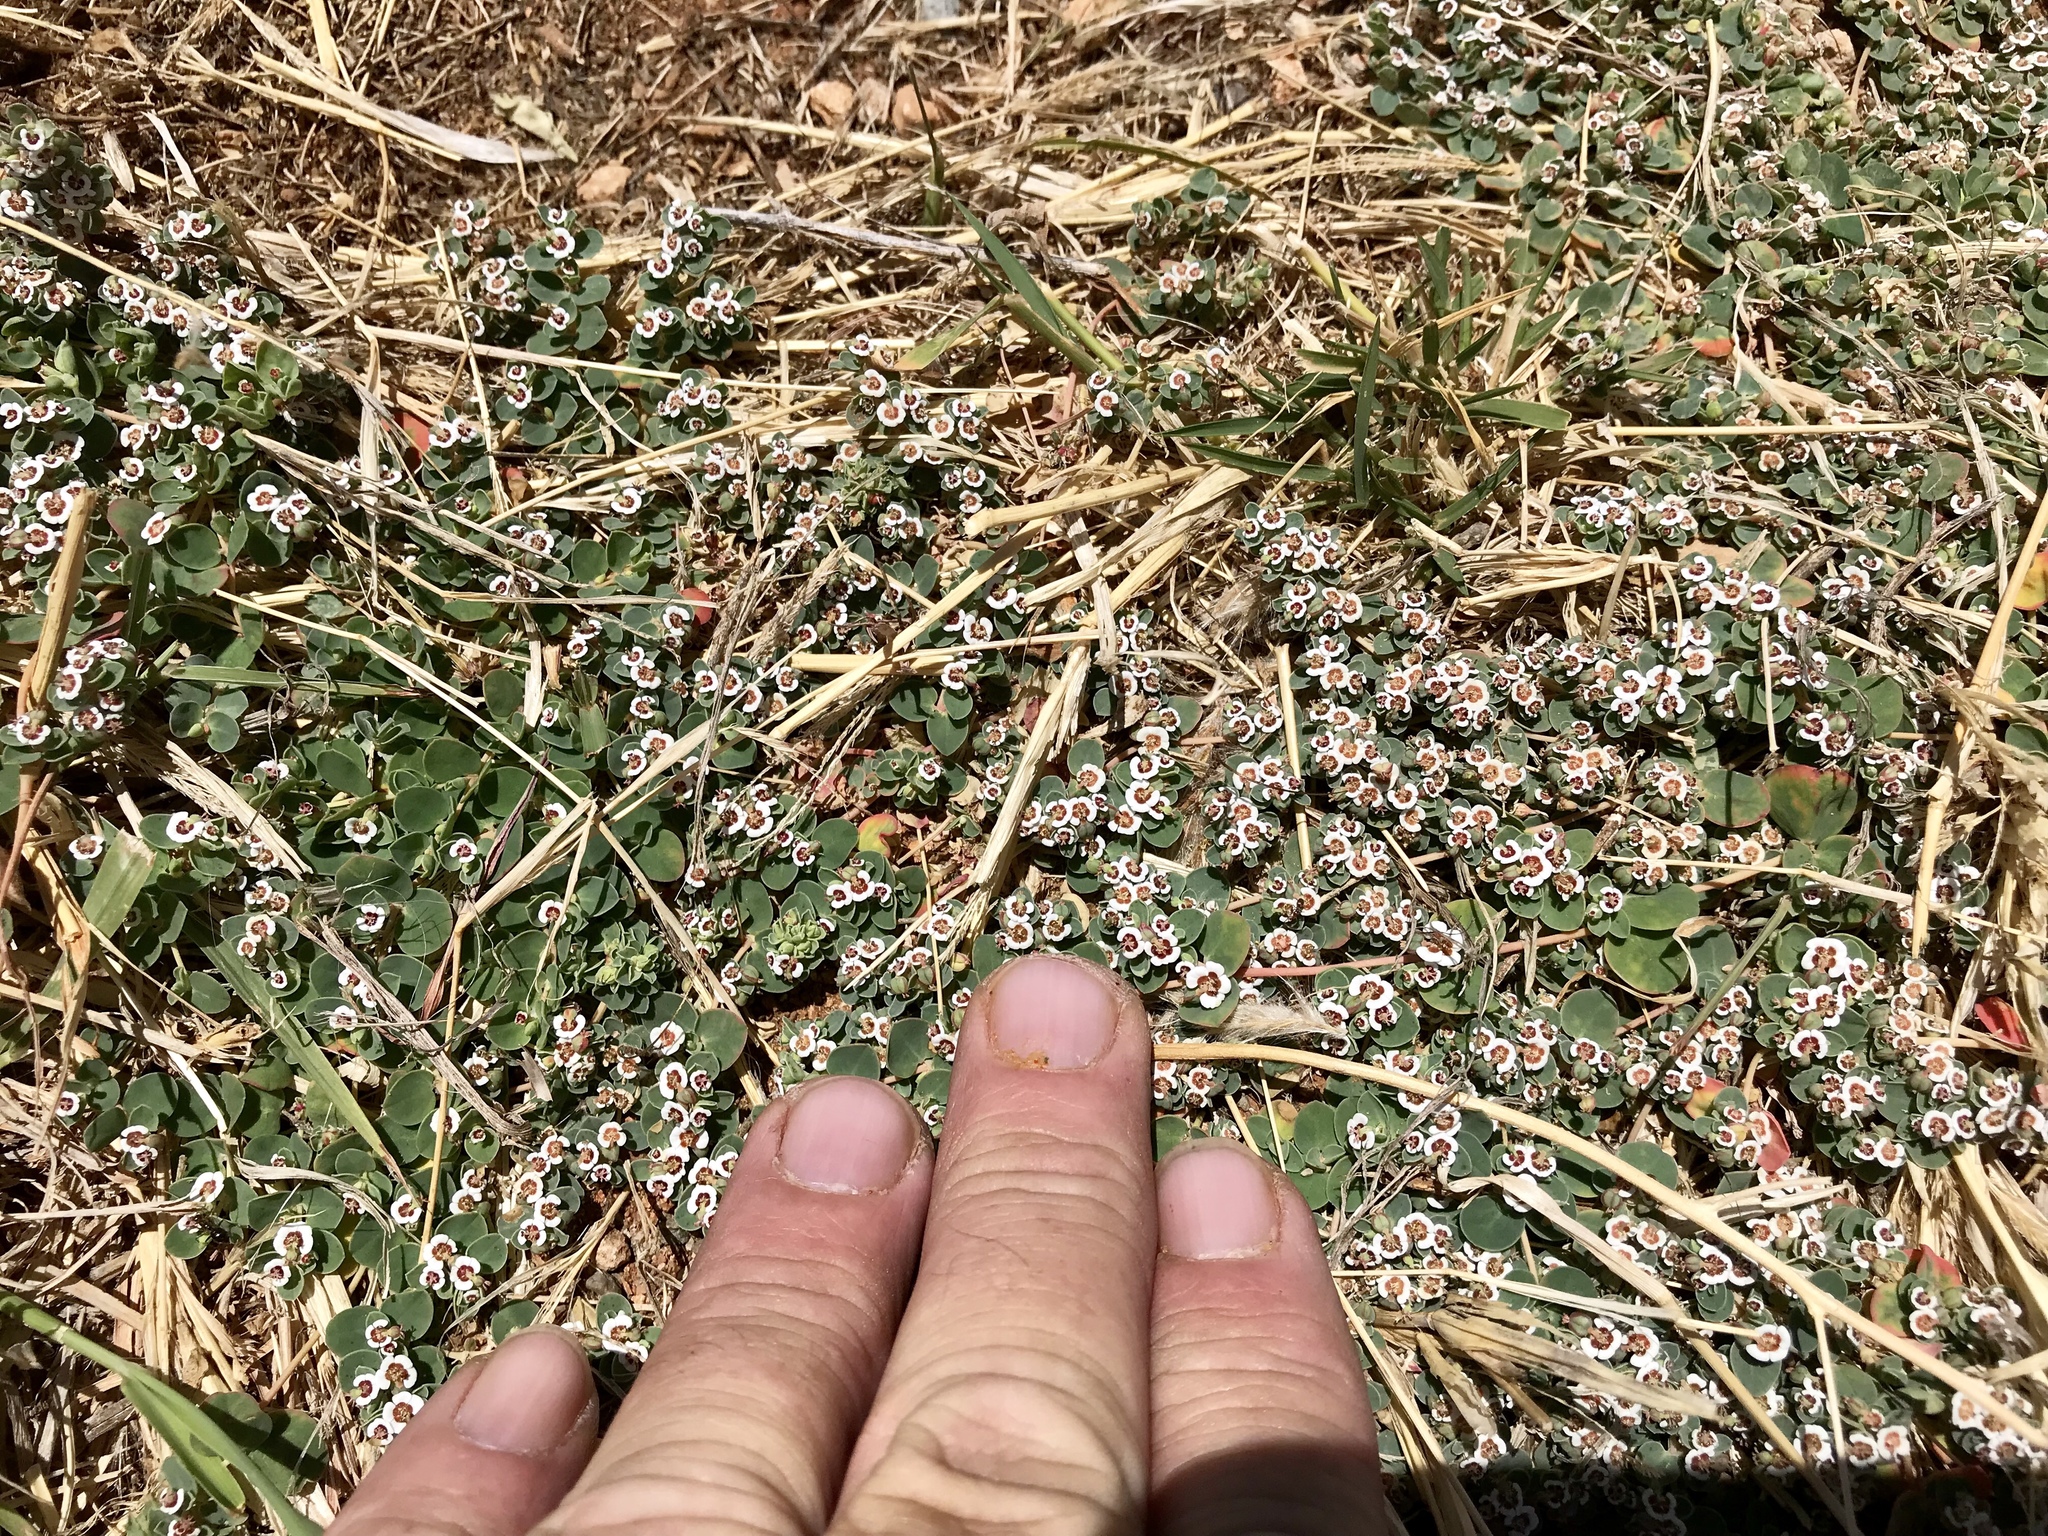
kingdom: Plantae
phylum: Tracheophyta
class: Magnoliopsida
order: Malpighiales
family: Euphorbiaceae
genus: Euphorbia
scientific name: Euphorbia albomarginata
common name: Whitemargin sandmat
